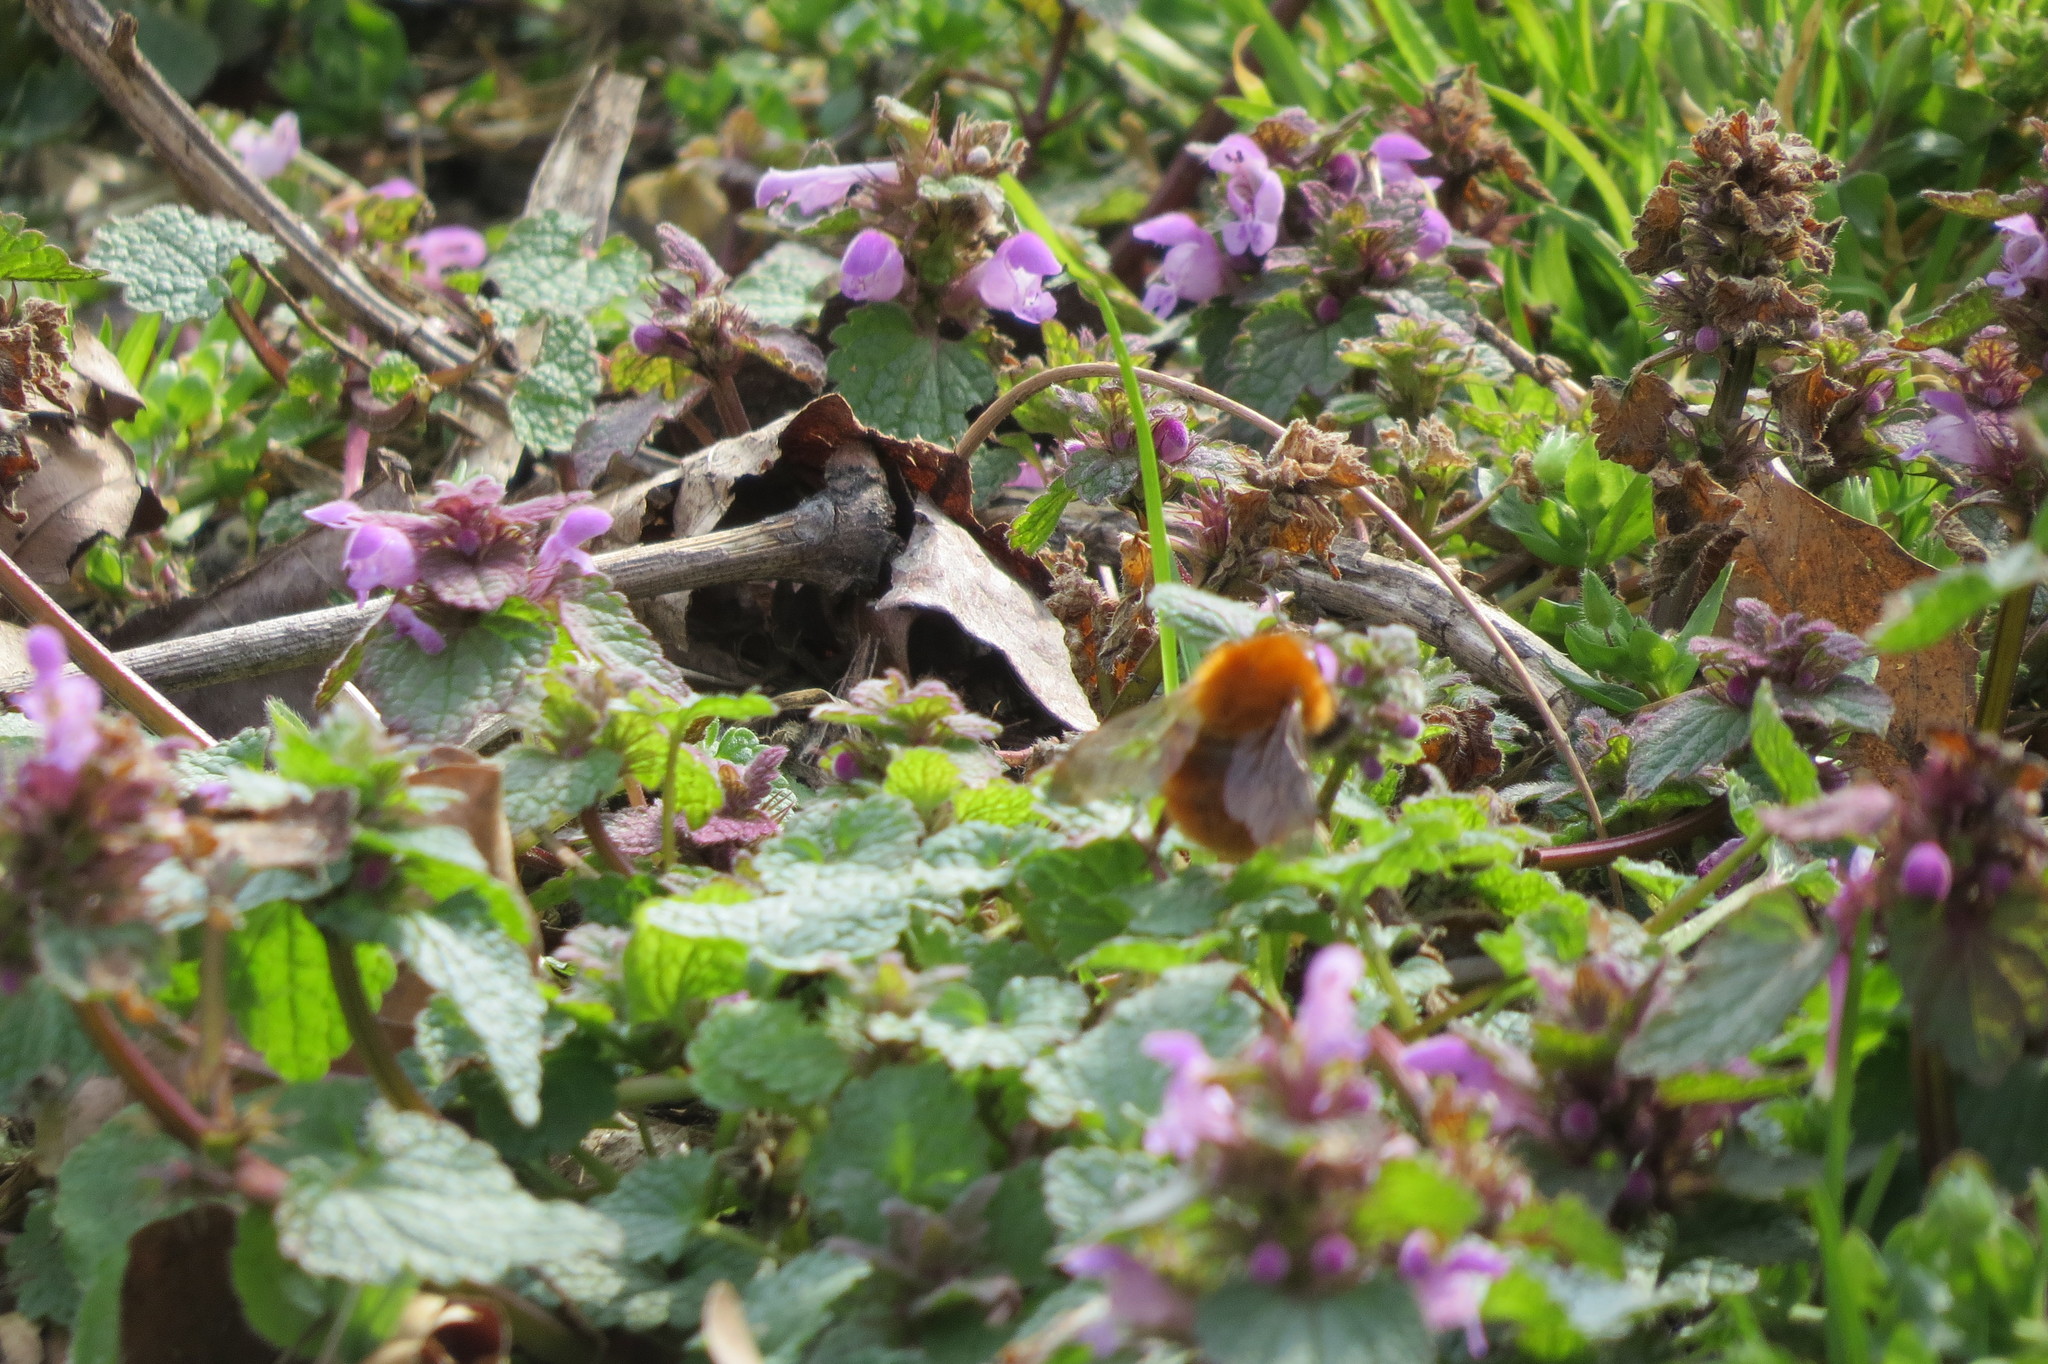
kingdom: Animalia
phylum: Arthropoda
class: Insecta
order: Hymenoptera
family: Apidae
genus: Bombus
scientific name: Bombus pascuorum
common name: Common carder bee
